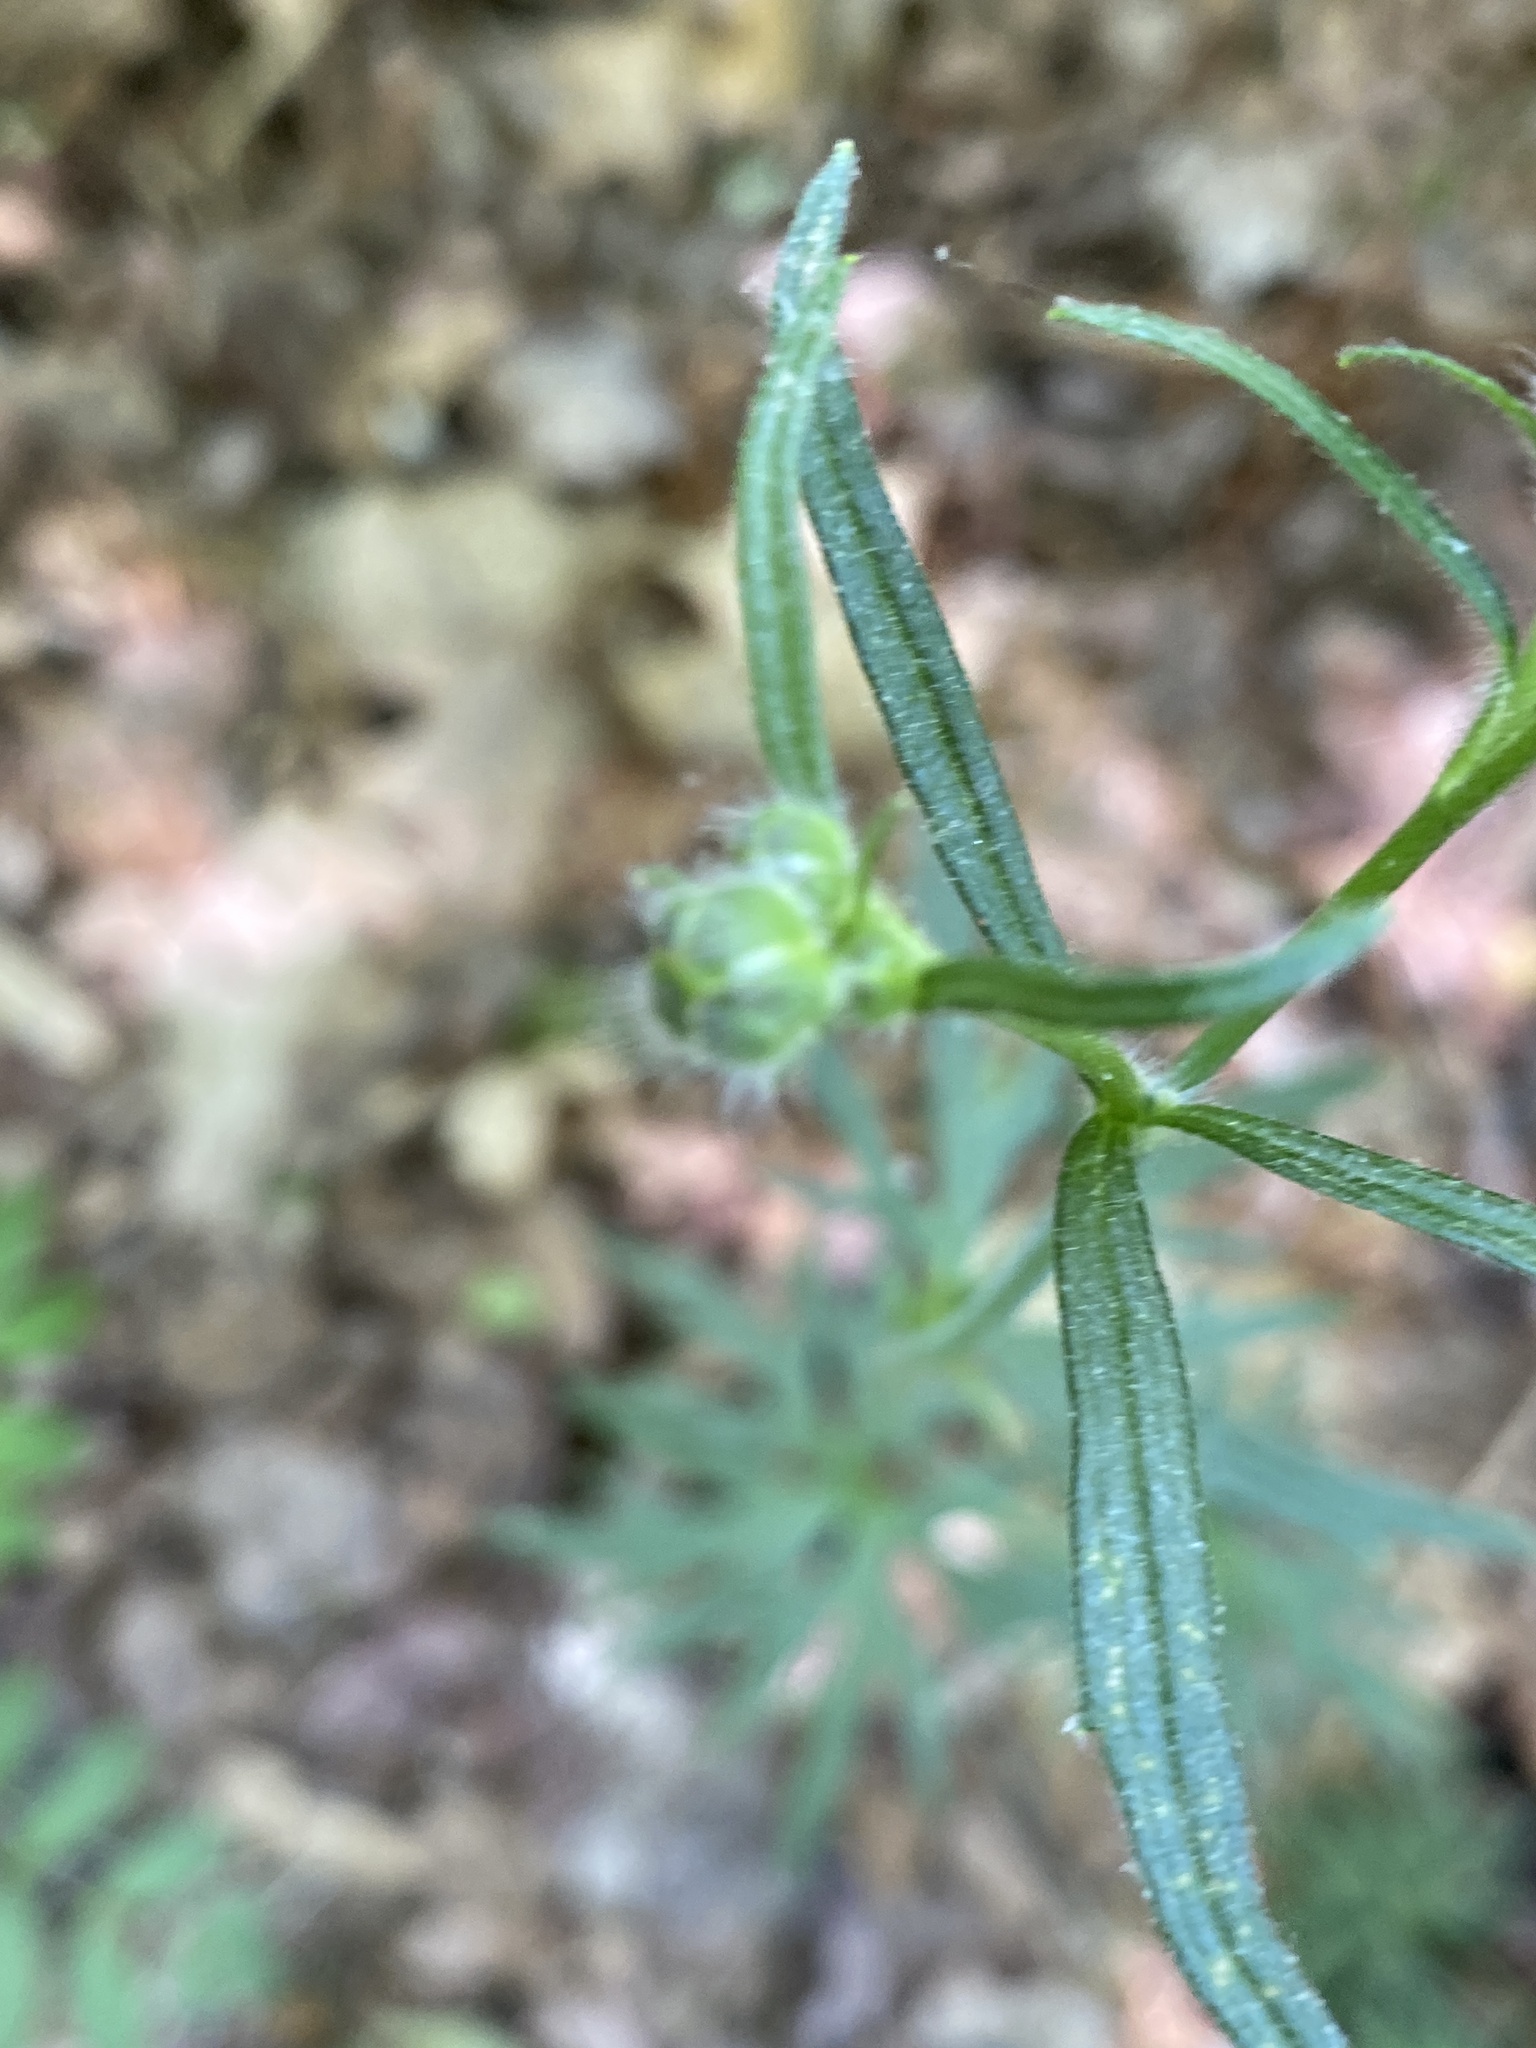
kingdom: Plantae
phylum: Tracheophyta
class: Magnoliopsida
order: Ranunculales
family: Ranunculaceae
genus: Ranunculus
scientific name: Ranunculus acris
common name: Meadow buttercup
